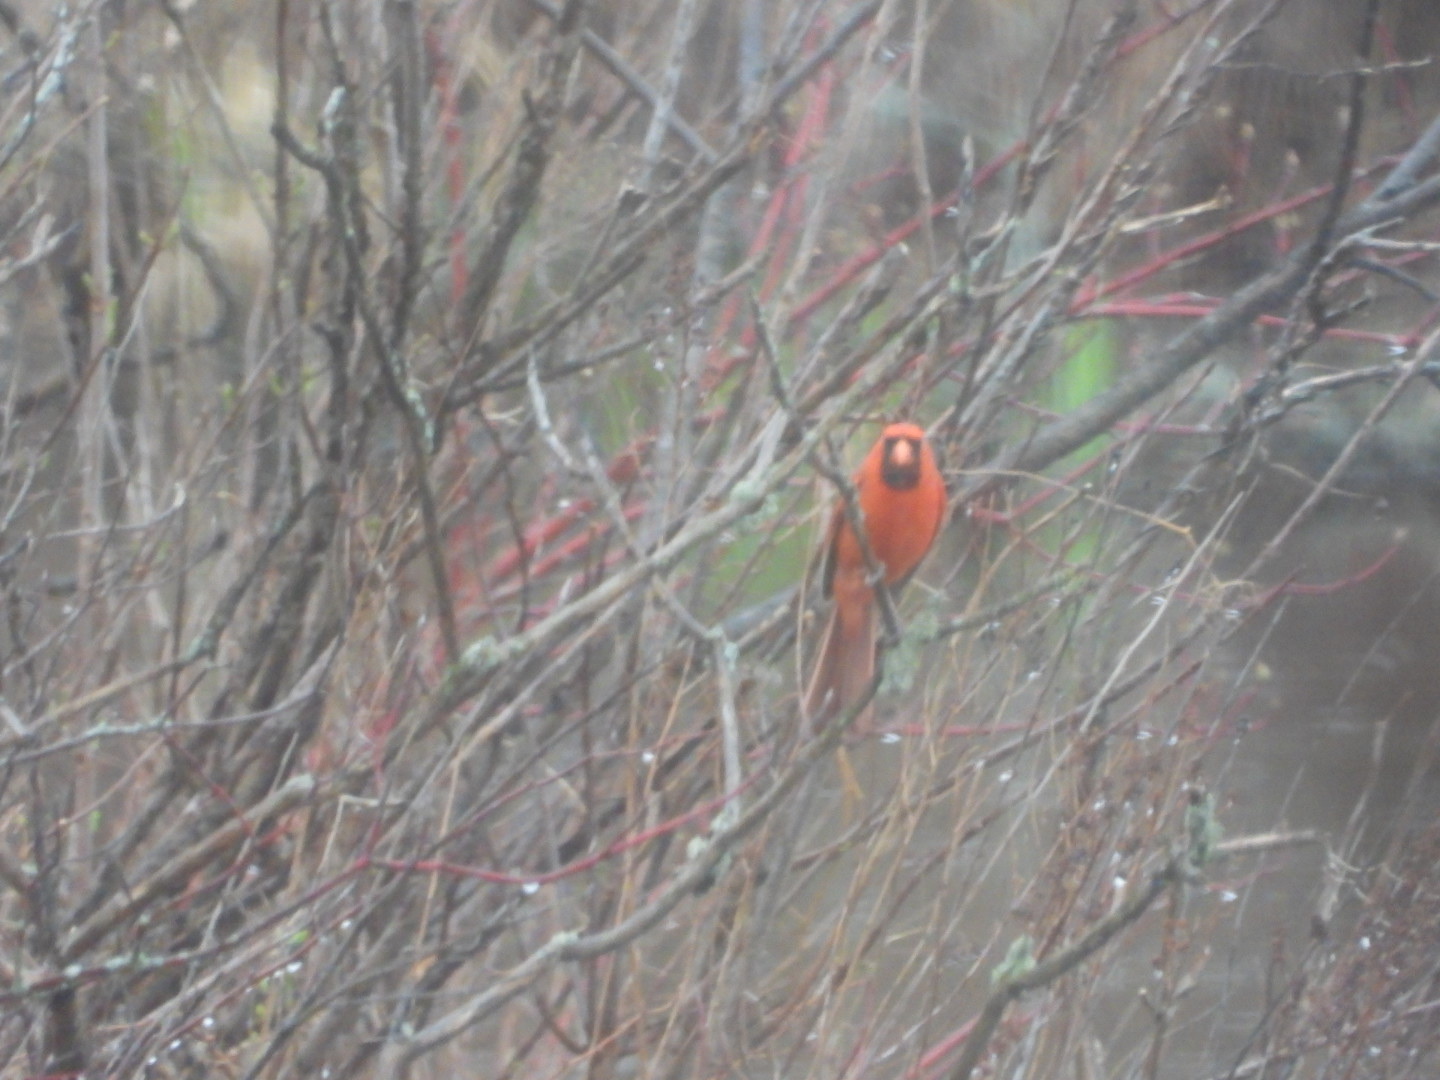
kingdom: Animalia
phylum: Chordata
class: Aves
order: Passeriformes
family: Cardinalidae
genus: Cardinalis
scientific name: Cardinalis cardinalis
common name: Northern cardinal
